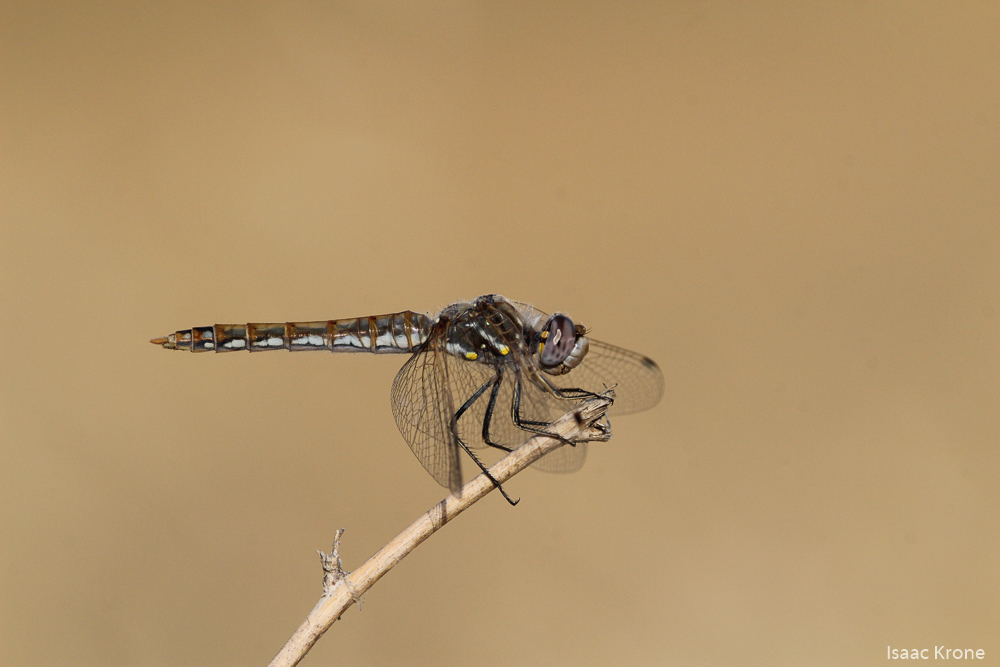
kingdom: Animalia
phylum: Arthropoda
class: Insecta
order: Odonata
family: Libellulidae
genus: Sympetrum
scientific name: Sympetrum corruptum
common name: Variegated meadowhawk
